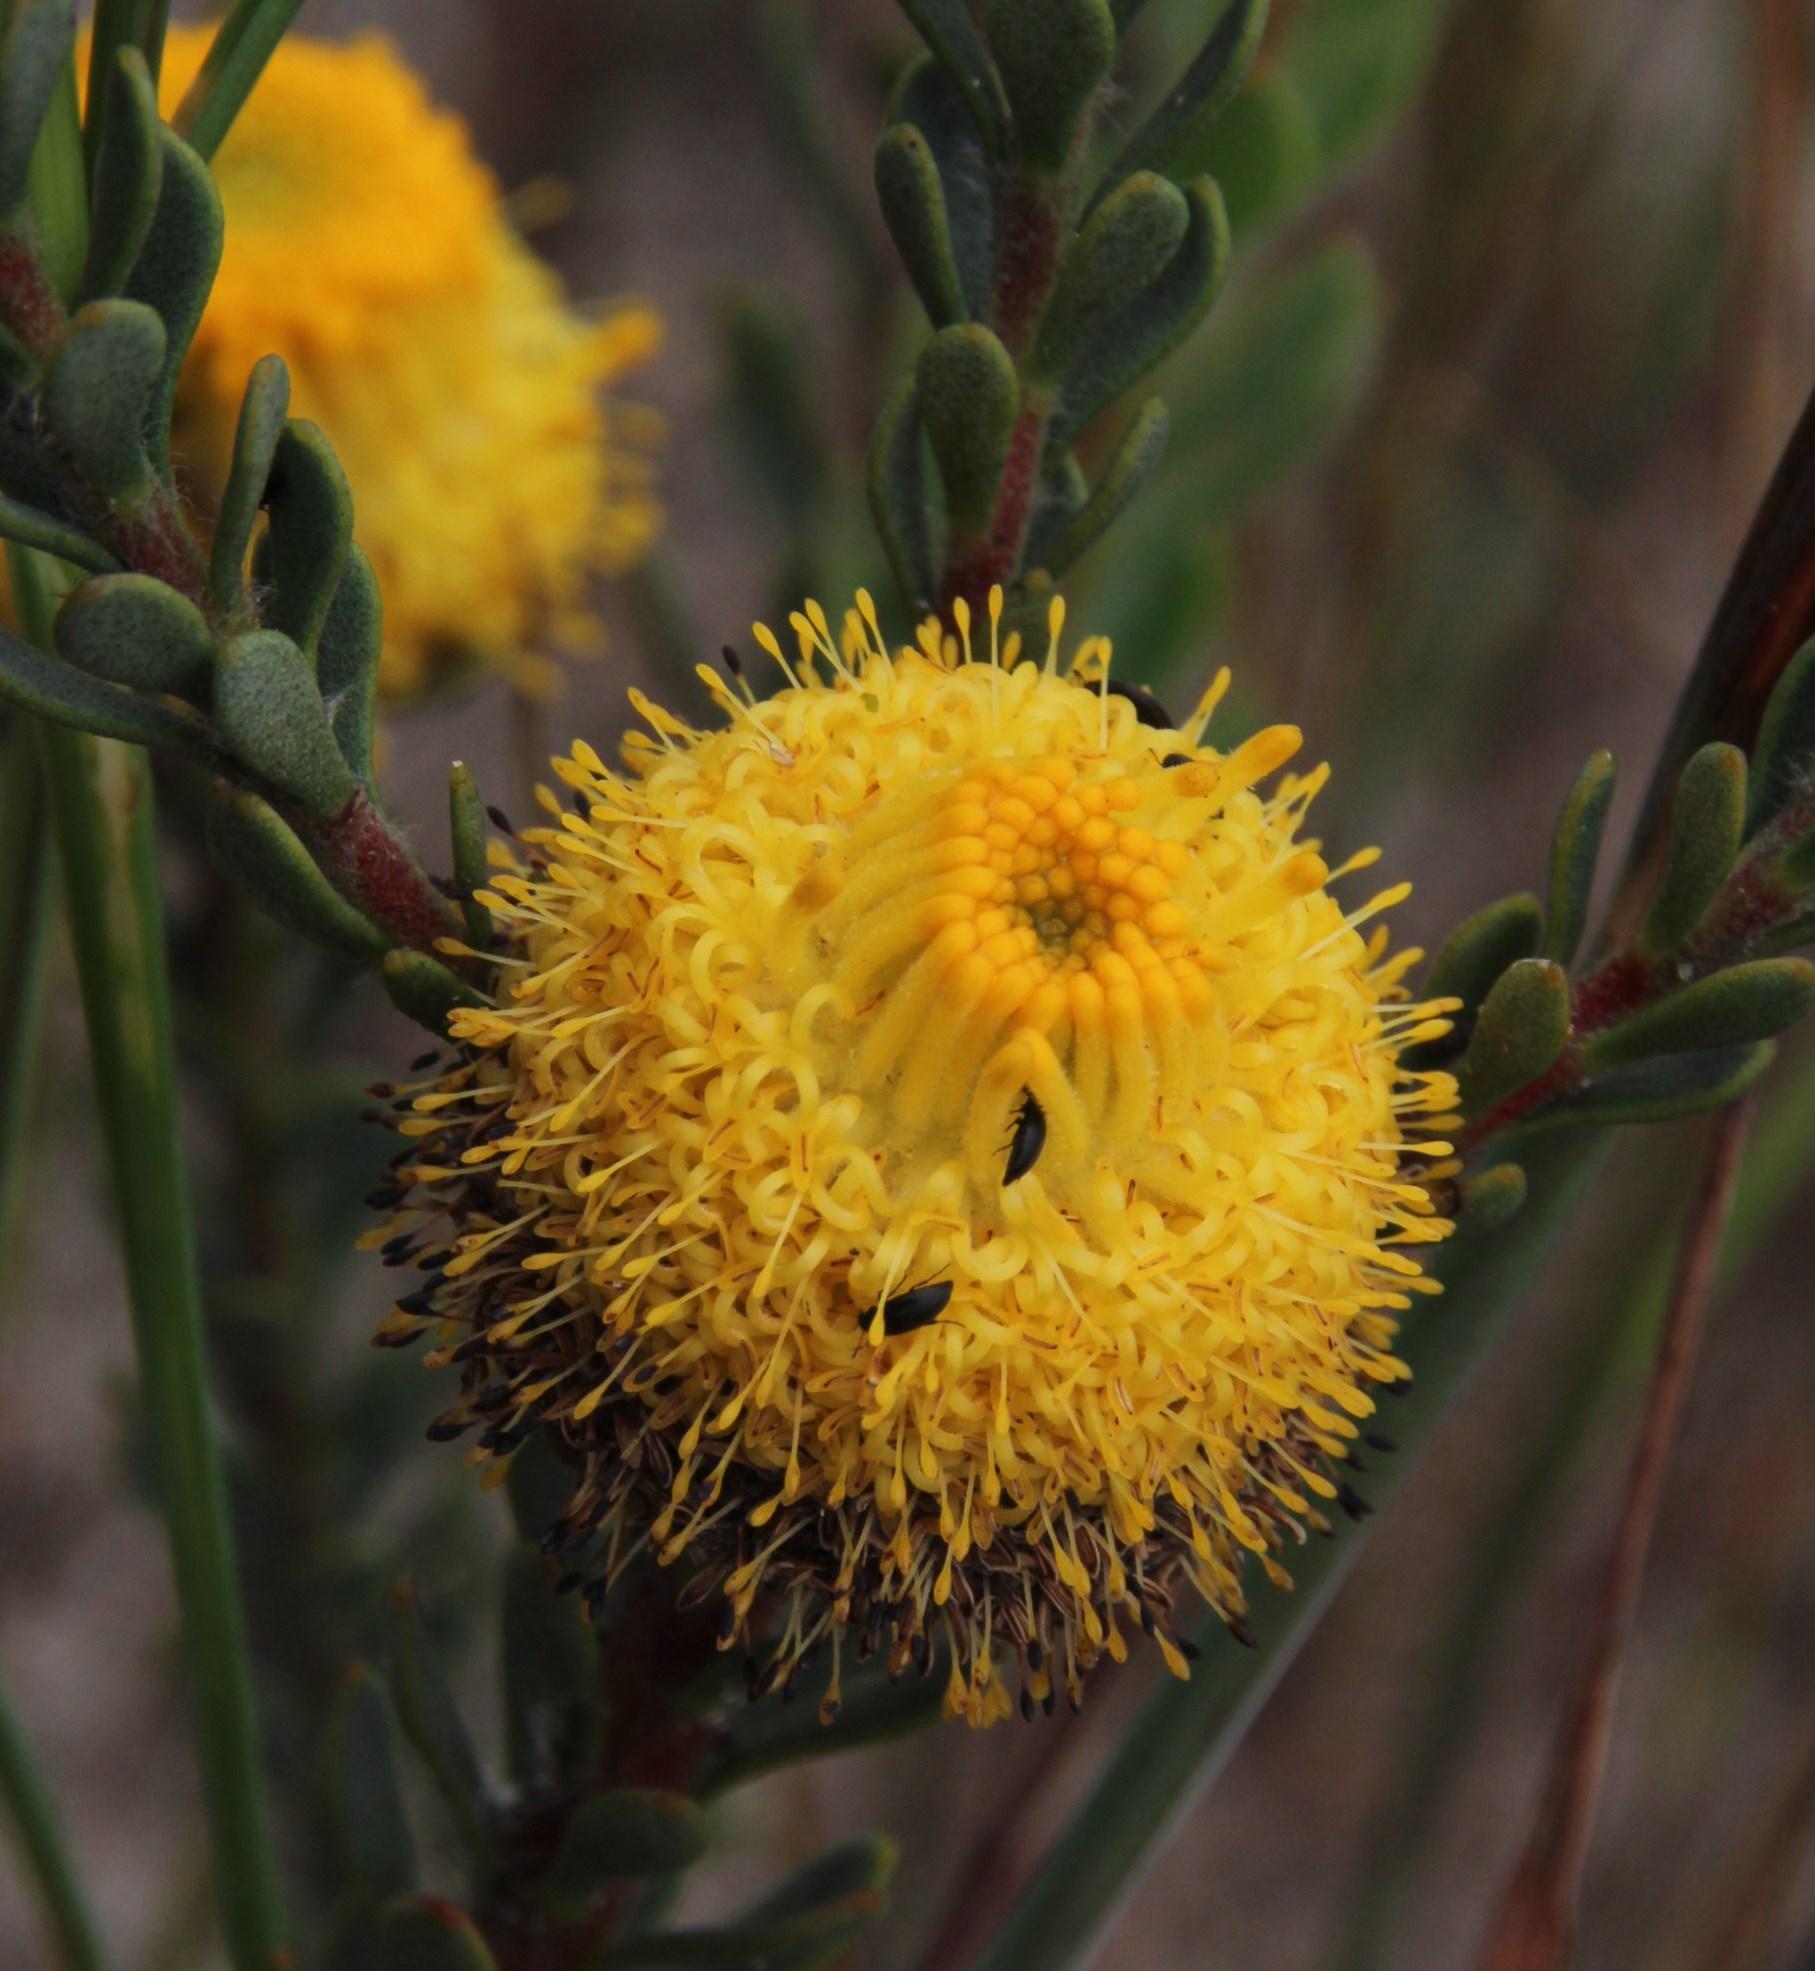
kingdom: Plantae
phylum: Tracheophyta
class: Magnoliopsida
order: Proteales
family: Proteaceae
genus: Leucadendron
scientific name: Leucadendron levisanus
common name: Cape flats conebush
